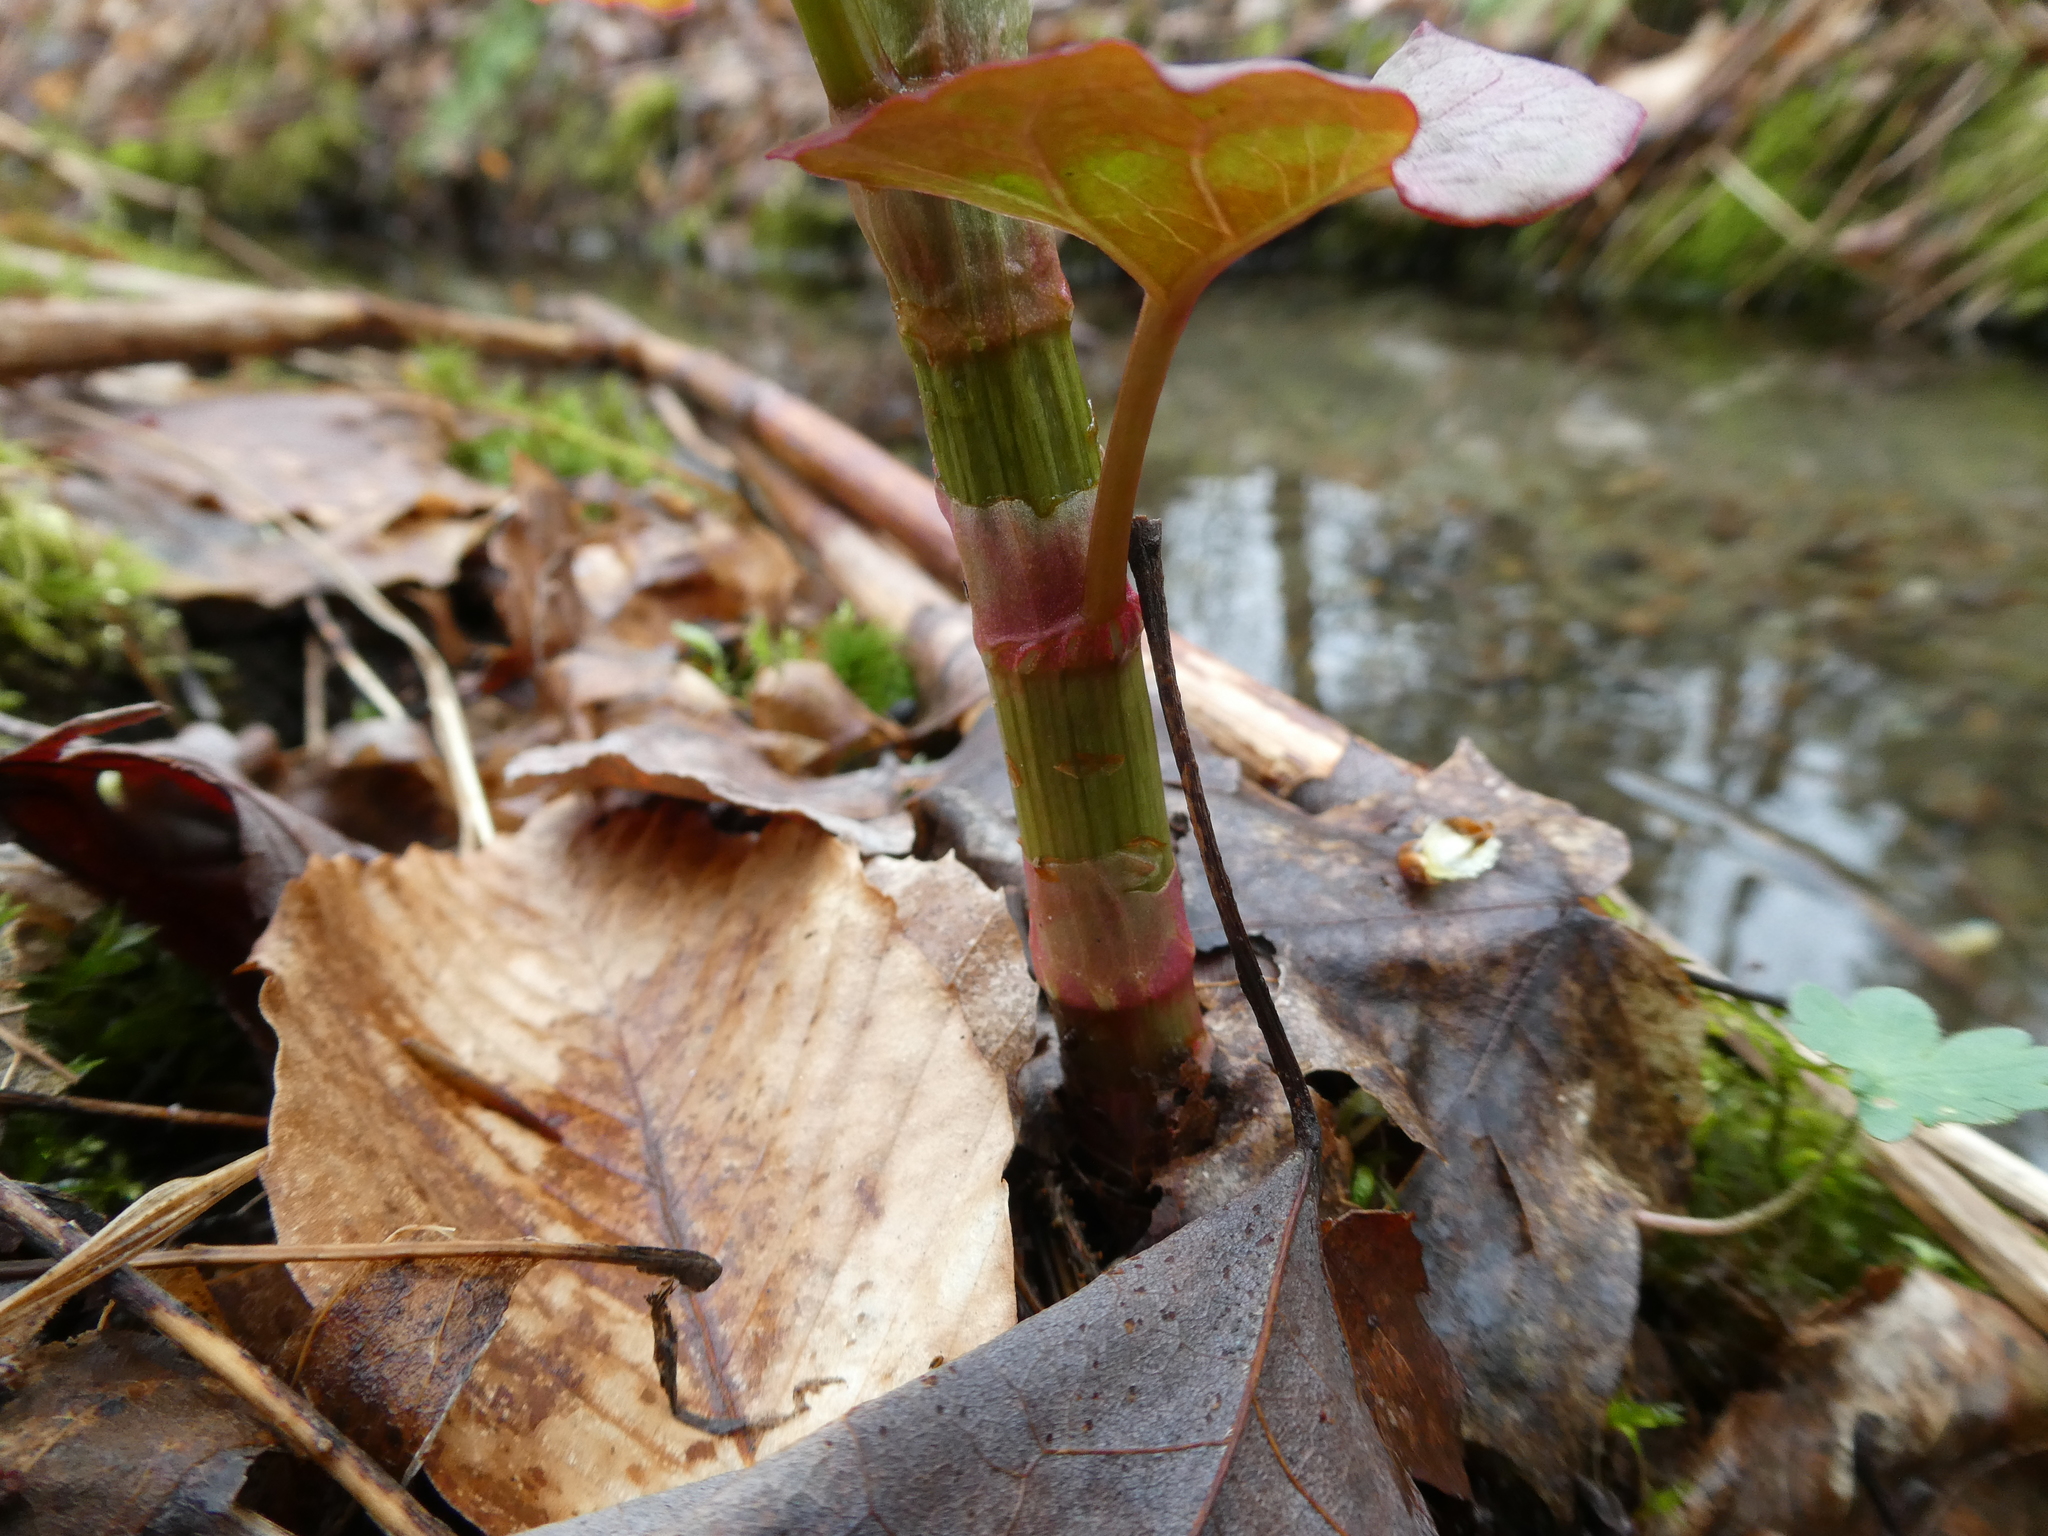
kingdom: Plantae
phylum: Tracheophyta
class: Magnoliopsida
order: Caryophyllales
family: Polygonaceae
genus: Reynoutria
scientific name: Reynoutria japonica
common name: Japanese knotweed
